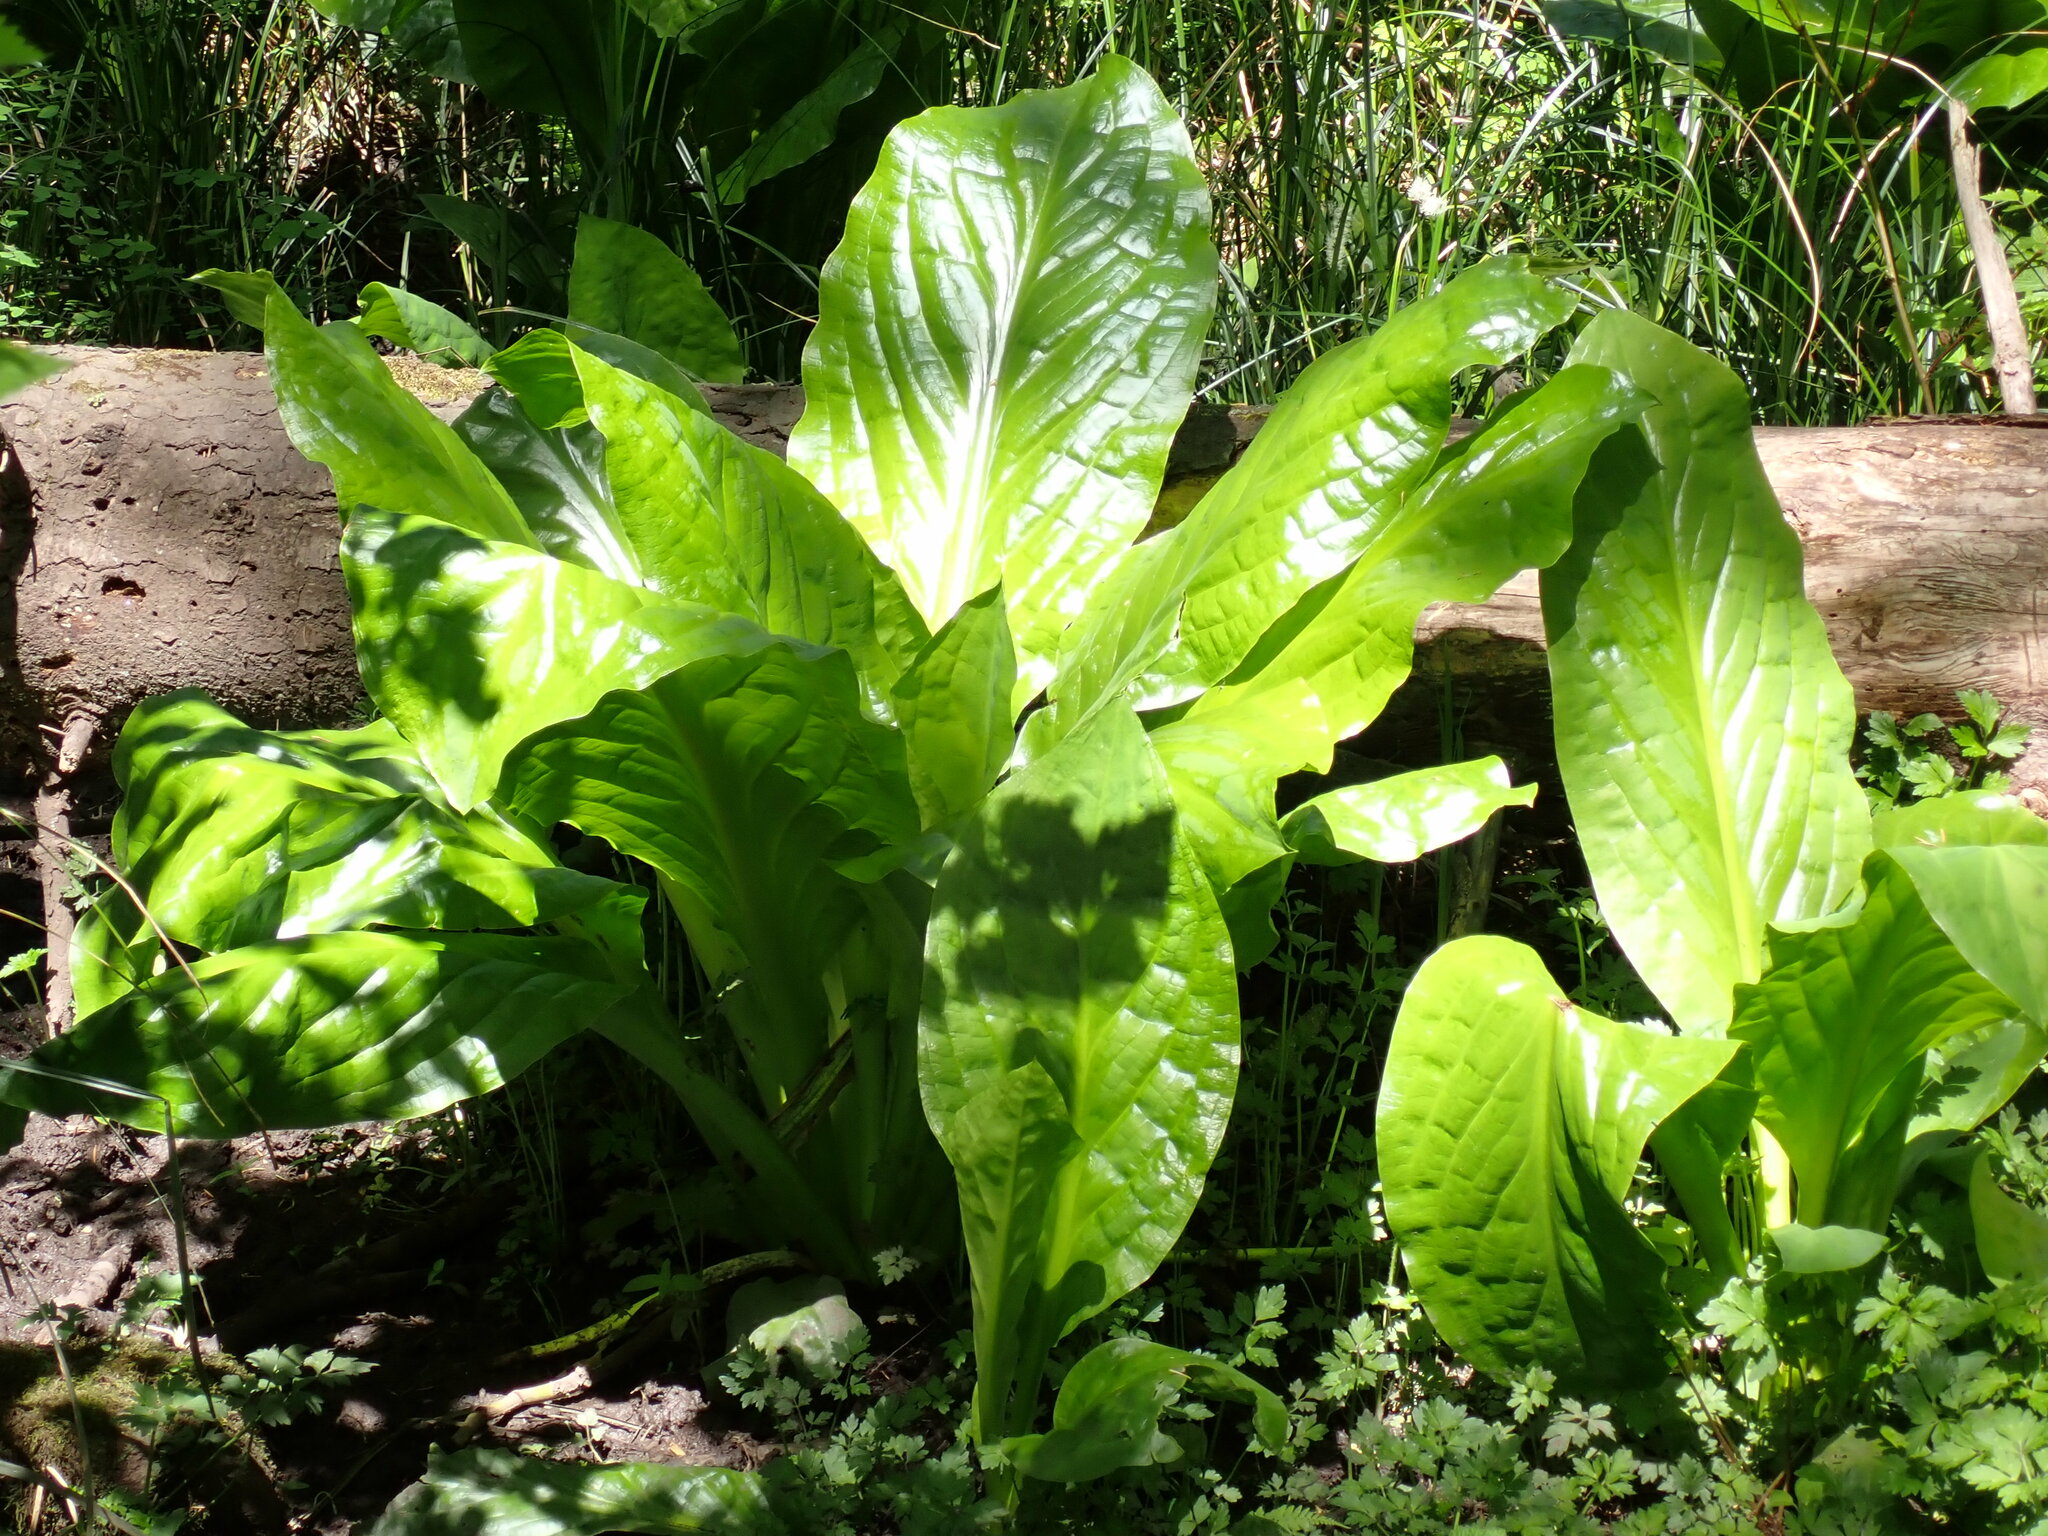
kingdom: Plantae
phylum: Tracheophyta
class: Liliopsida
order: Alismatales
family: Araceae
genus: Lysichiton
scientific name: Lysichiton americanus
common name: American skunk cabbage
